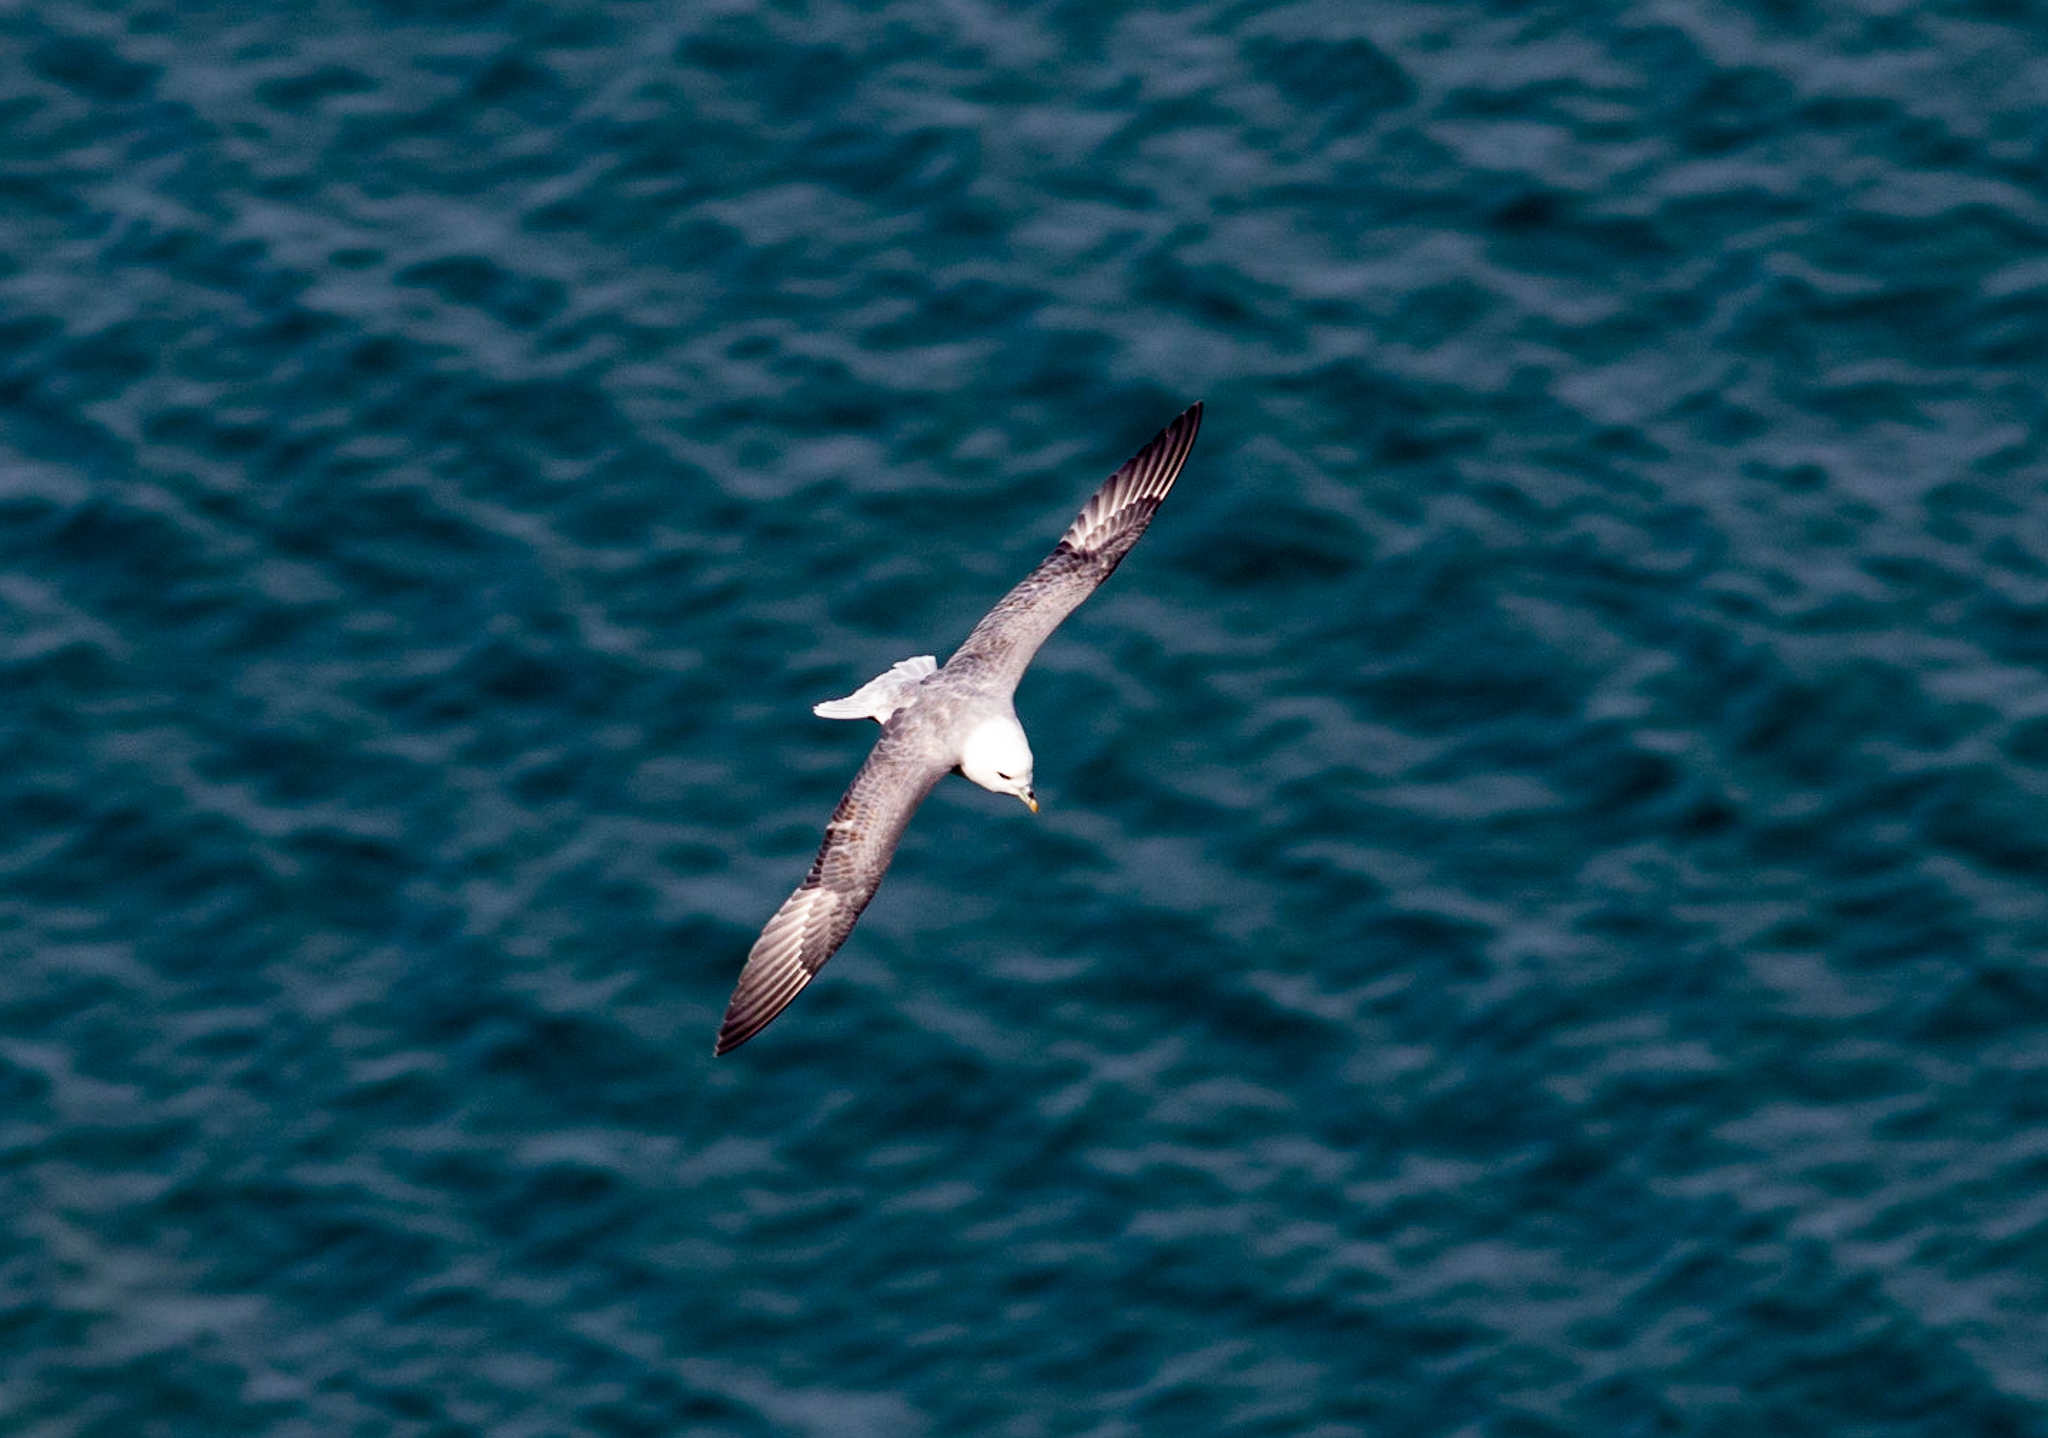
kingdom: Animalia
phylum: Chordata
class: Aves
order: Procellariiformes
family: Procellariidae
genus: Fulmarus
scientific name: Fulmarus glacialis
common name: Northern fulmar
